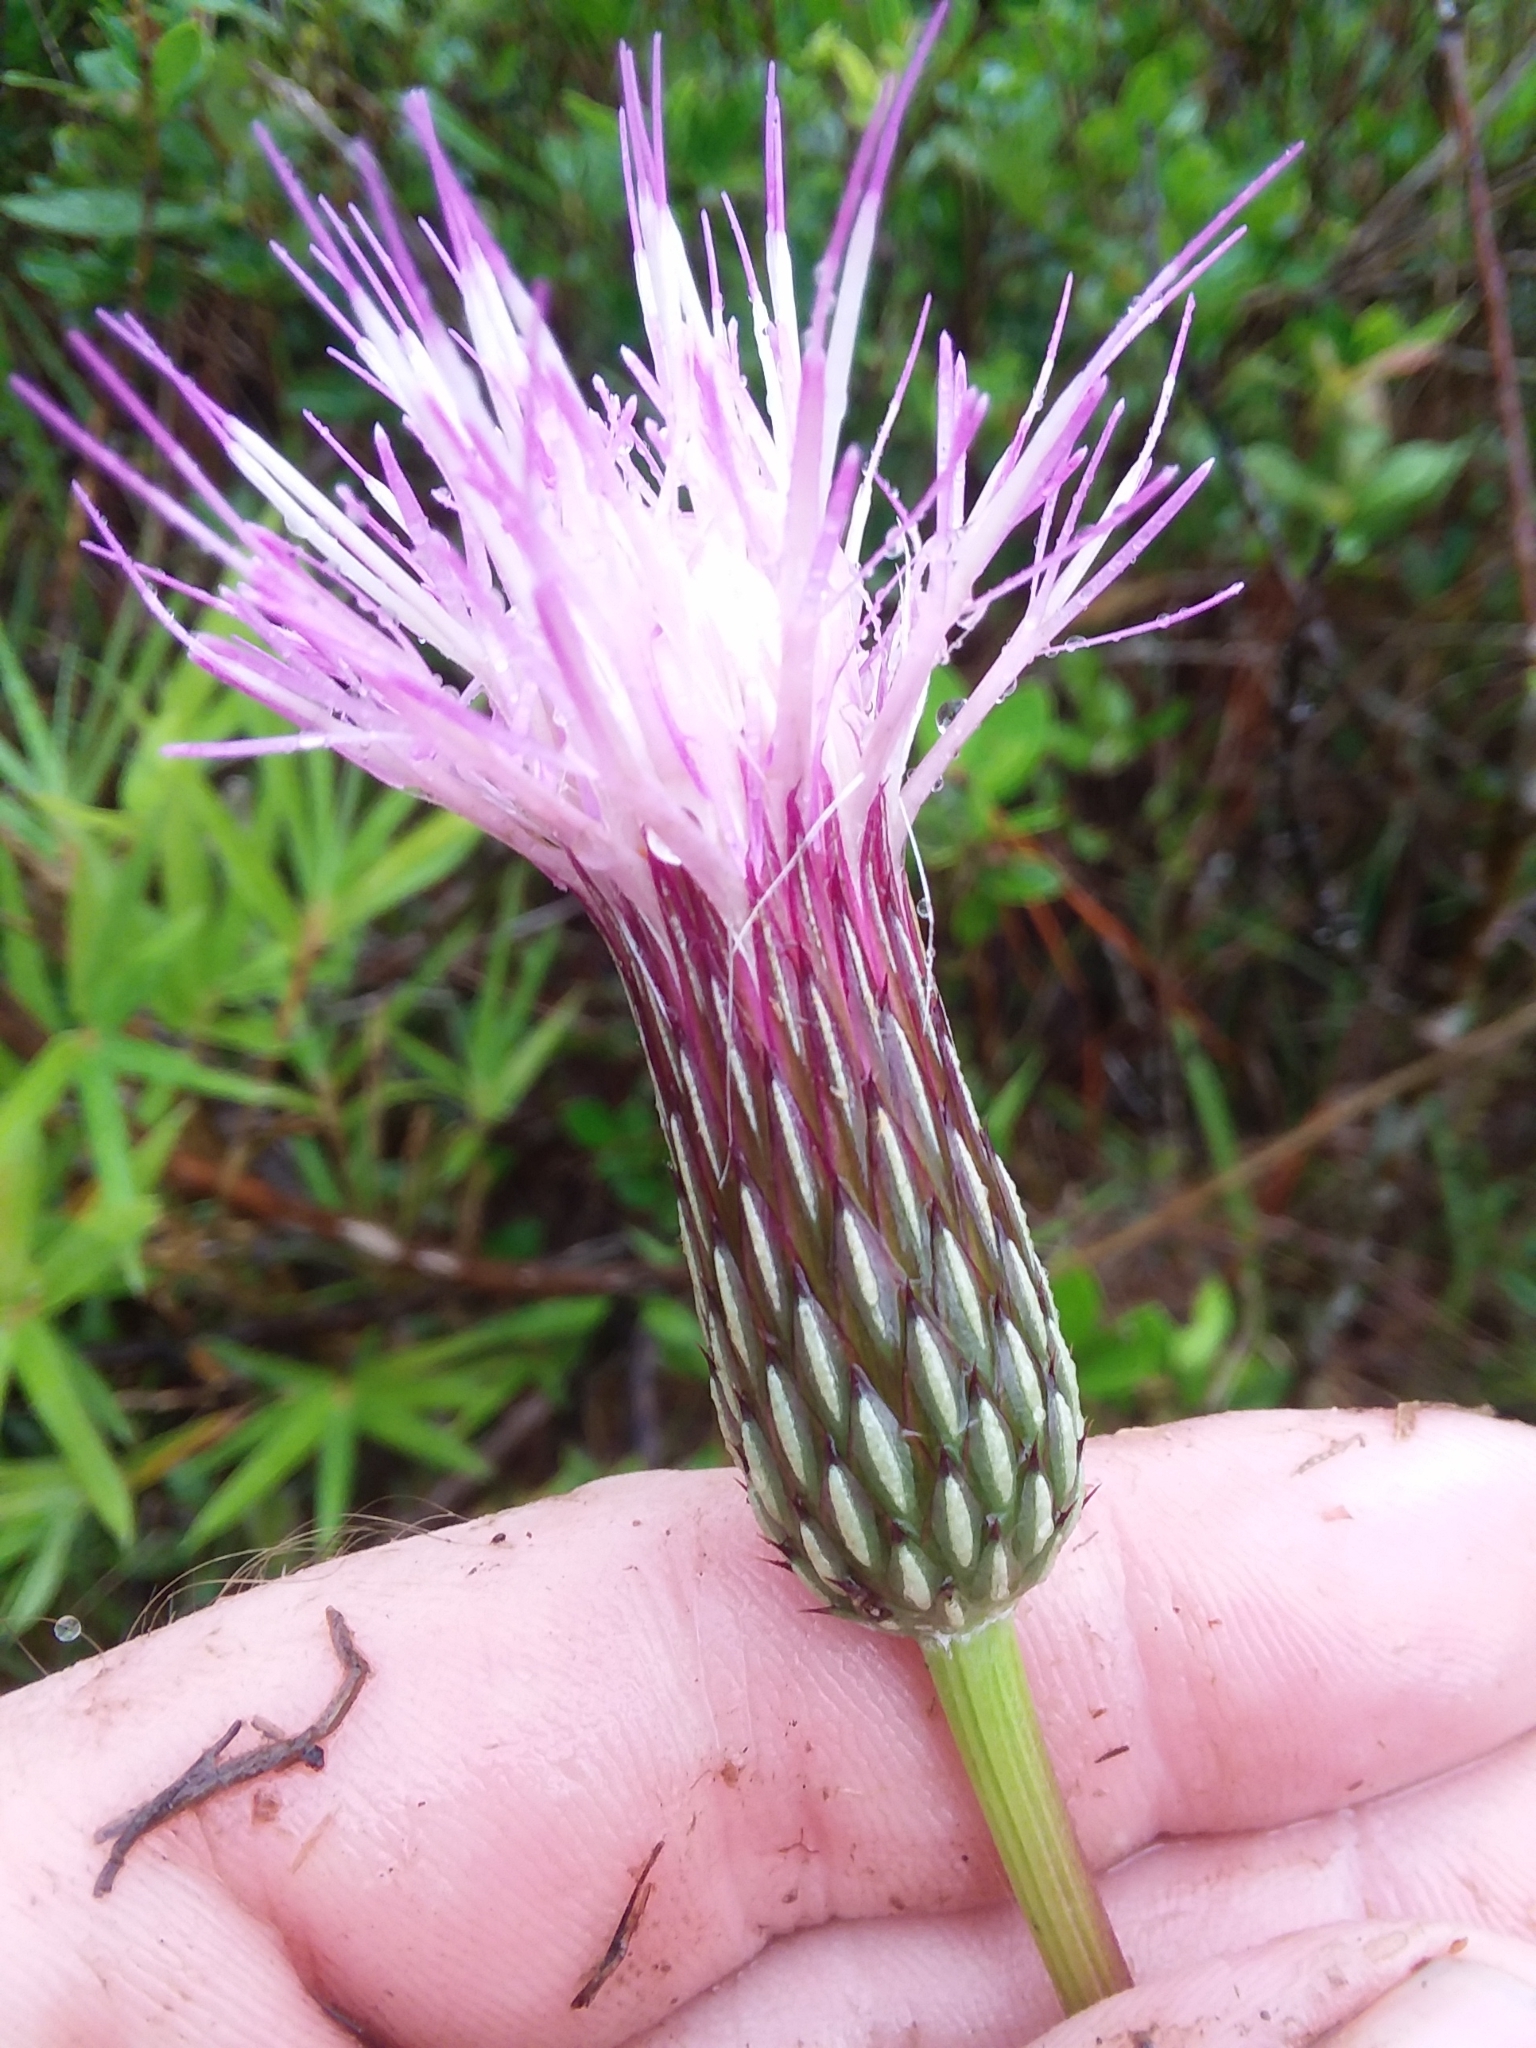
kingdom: Plantae
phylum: Tracheophyta
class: Magnoliopsida
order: Asterales
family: Asteraceae
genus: Cirsium
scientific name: Cirsium lecontei
